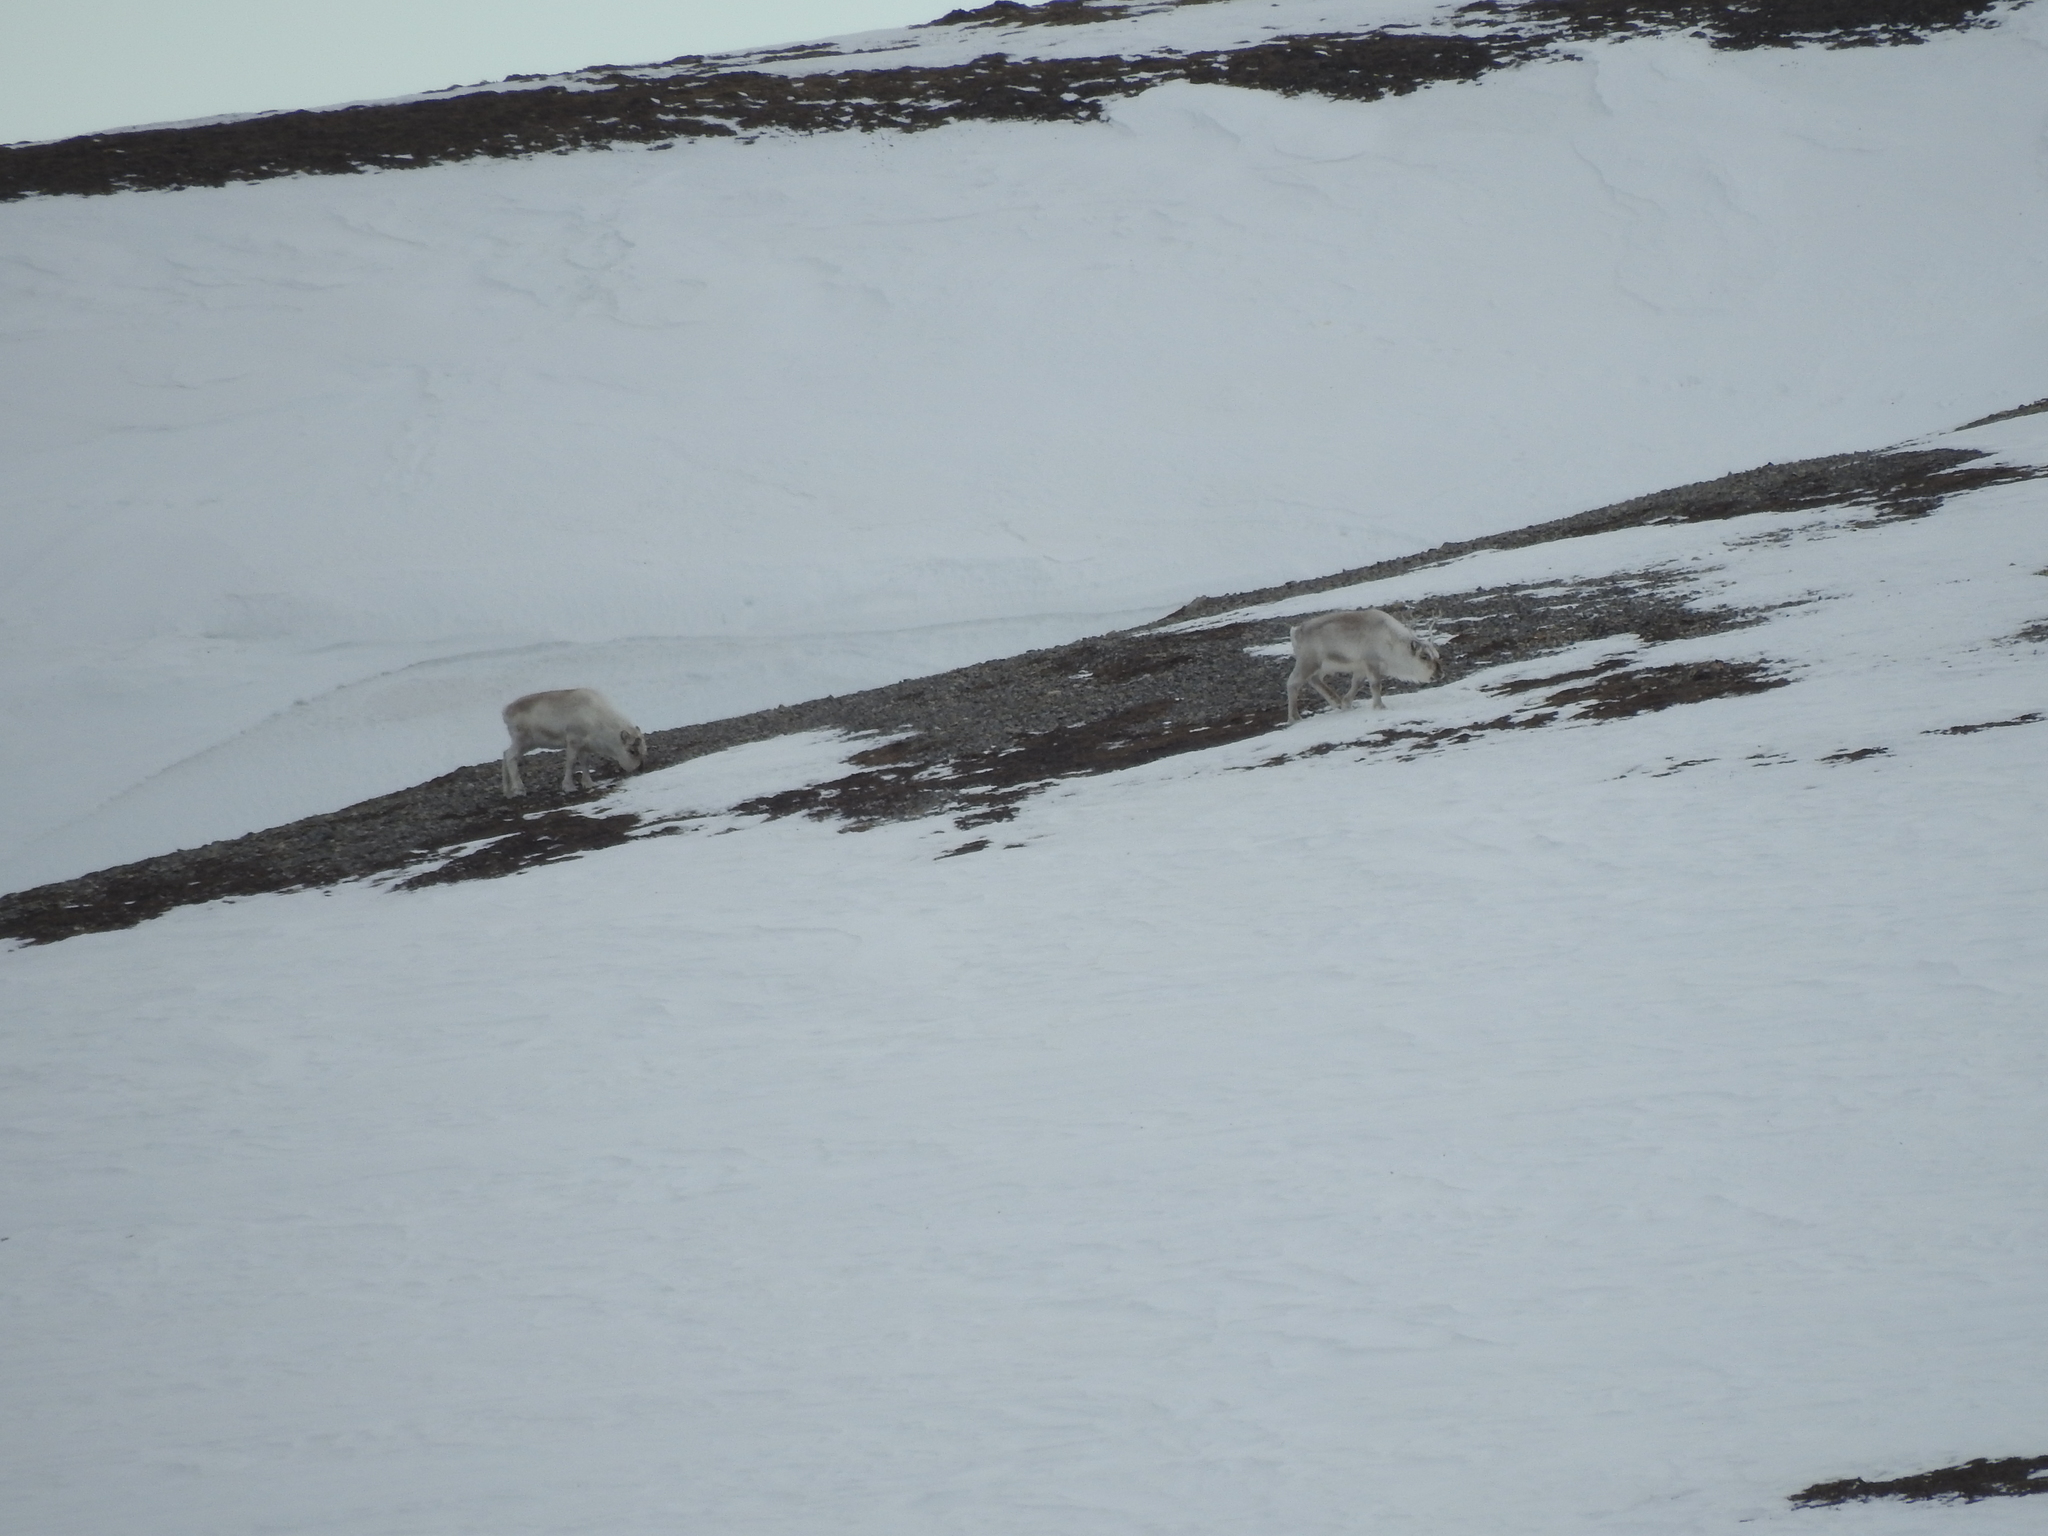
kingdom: Animalia
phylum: Chordata
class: Mammalia
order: Artiodactyla
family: Cervidae
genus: Rangifer
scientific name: Rangifer tarandus
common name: Reindeer
